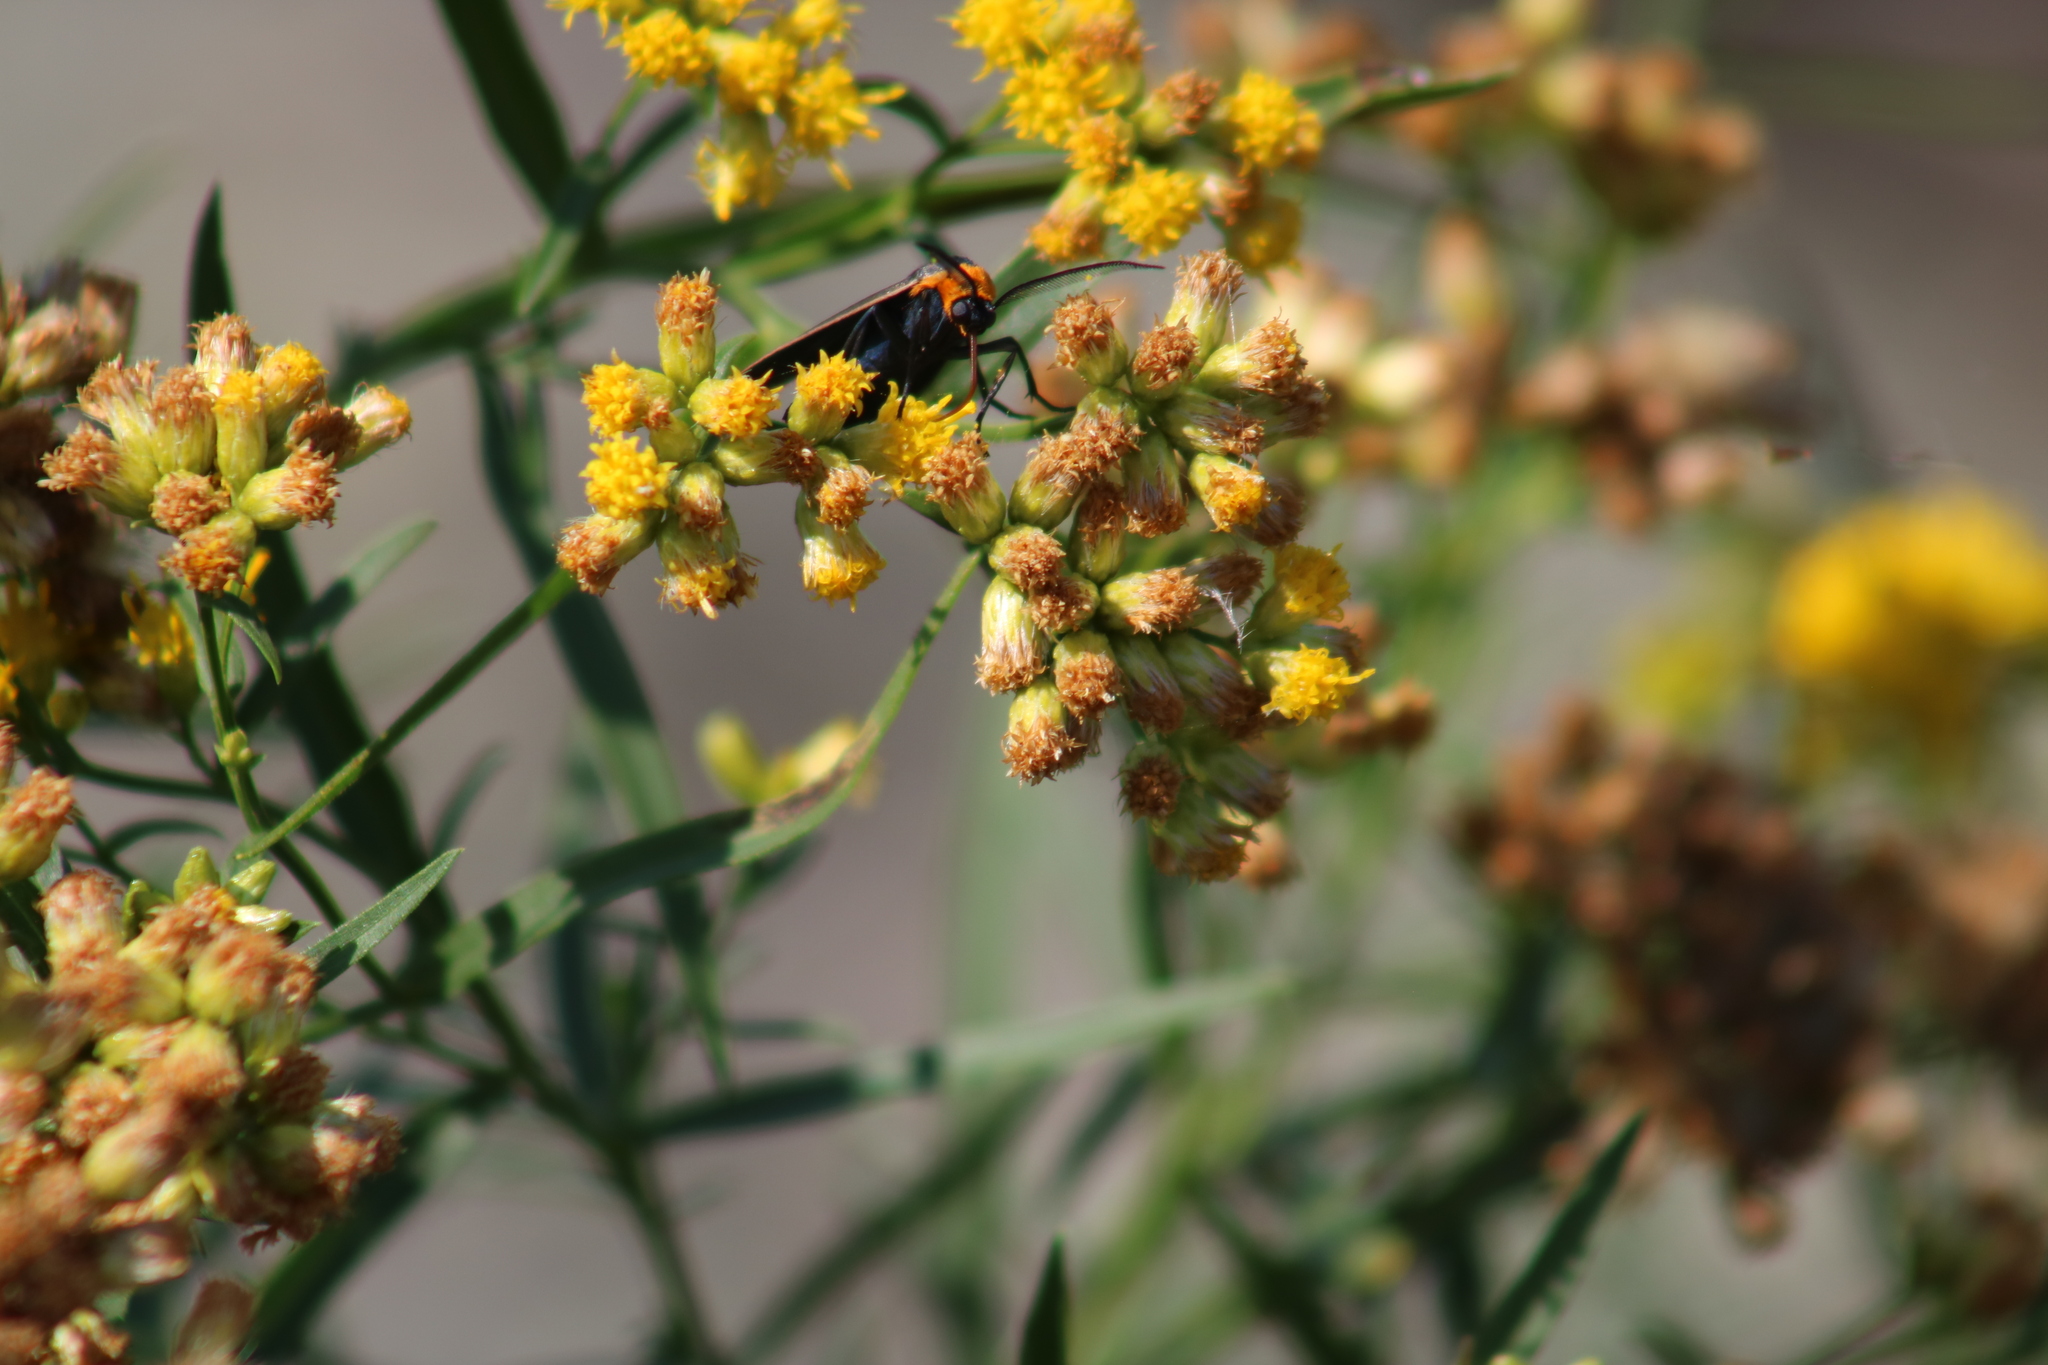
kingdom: Animalia
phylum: Arthropoda
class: Insecta
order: Lepidoptera
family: Erebidae
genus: Cisseps
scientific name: Cisseps fulvicollis
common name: Yellow-collared scape moth
